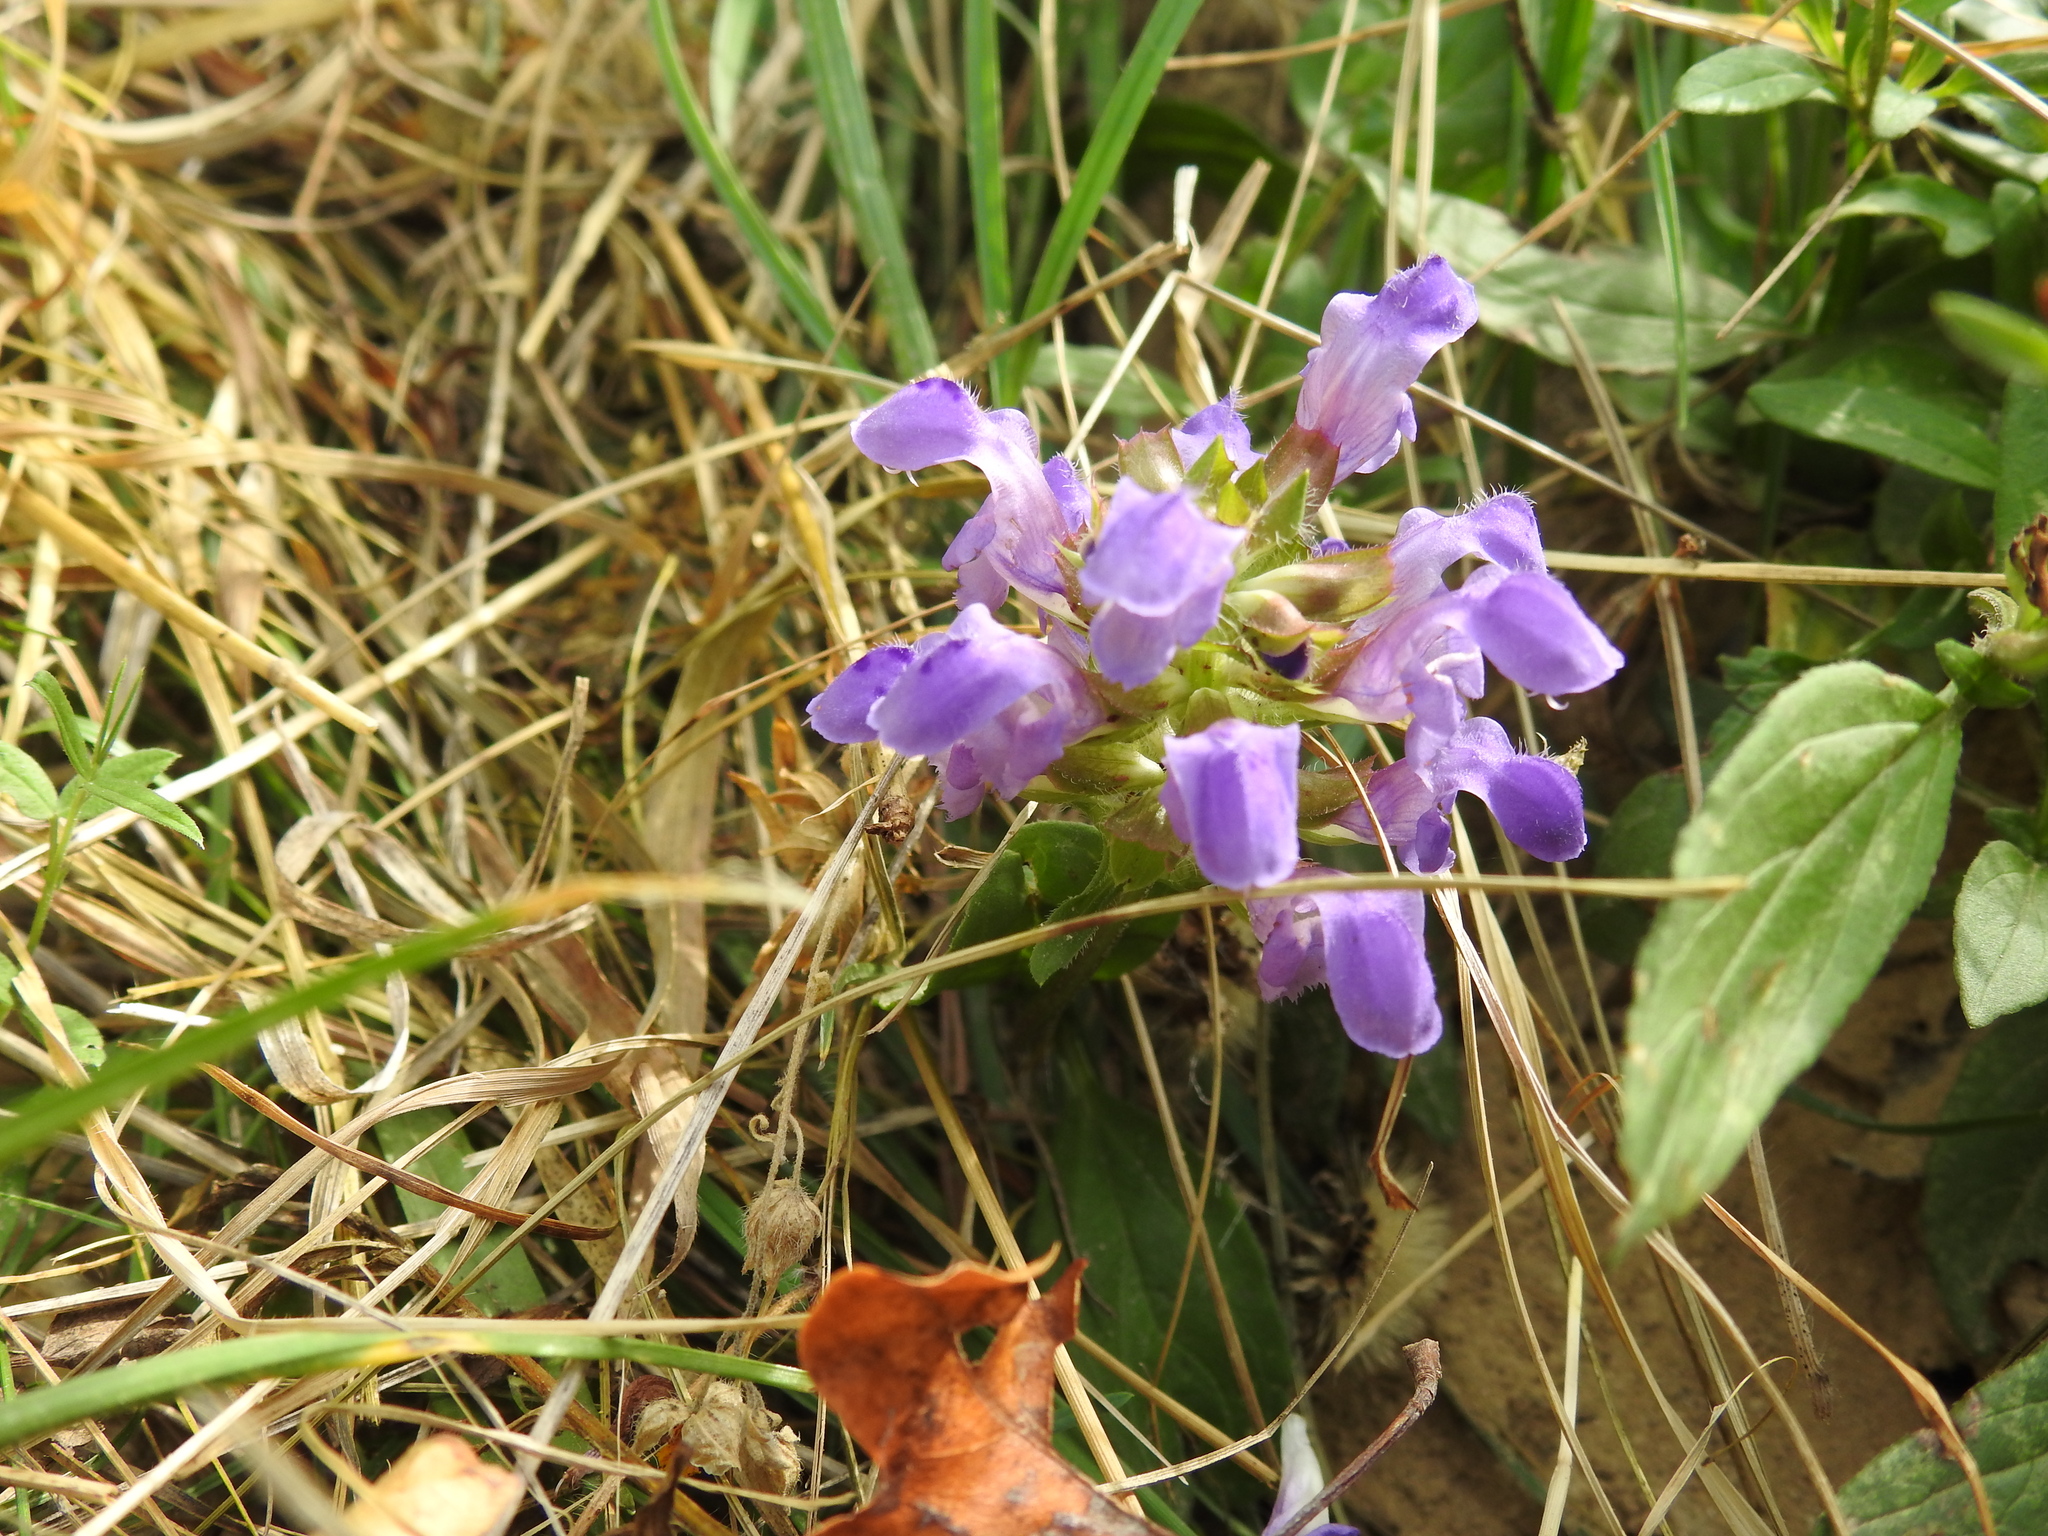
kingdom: Plantae
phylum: Tracheophyta
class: Magnoliopsida
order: Lamiales
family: Lamiaceae
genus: Prunella
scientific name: Prunella grandiflora
